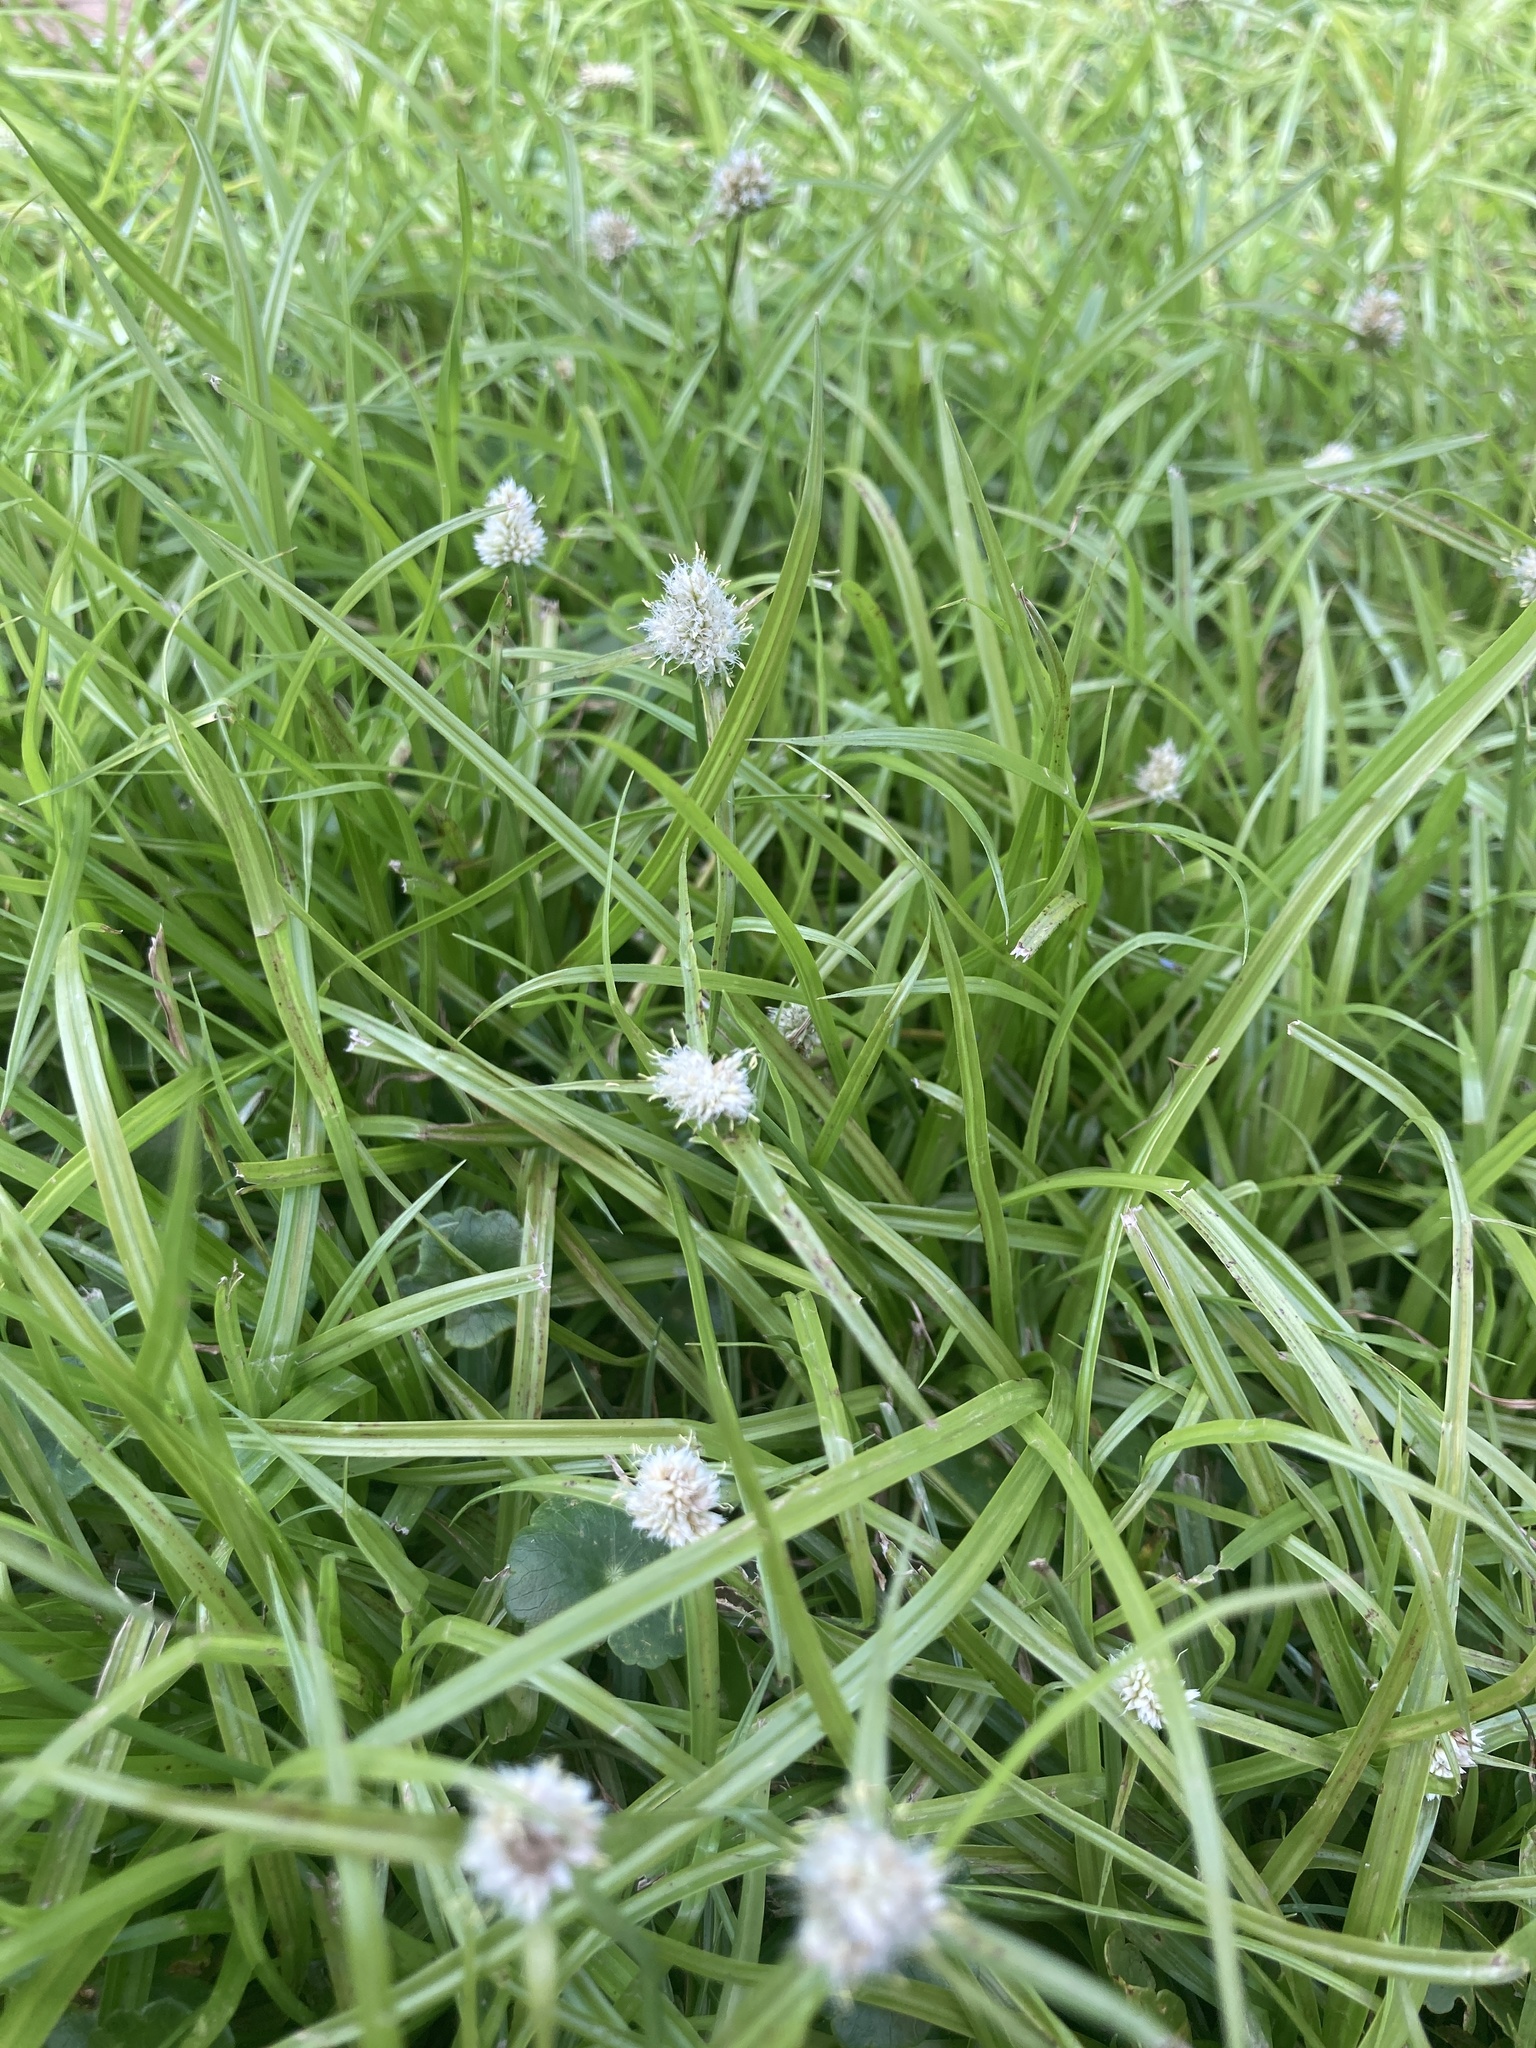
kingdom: Plantae
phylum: Tracheophyta
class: Liliopsida
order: Poales
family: Cyperaceae
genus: Cyperus
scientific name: Cyperus richardii
